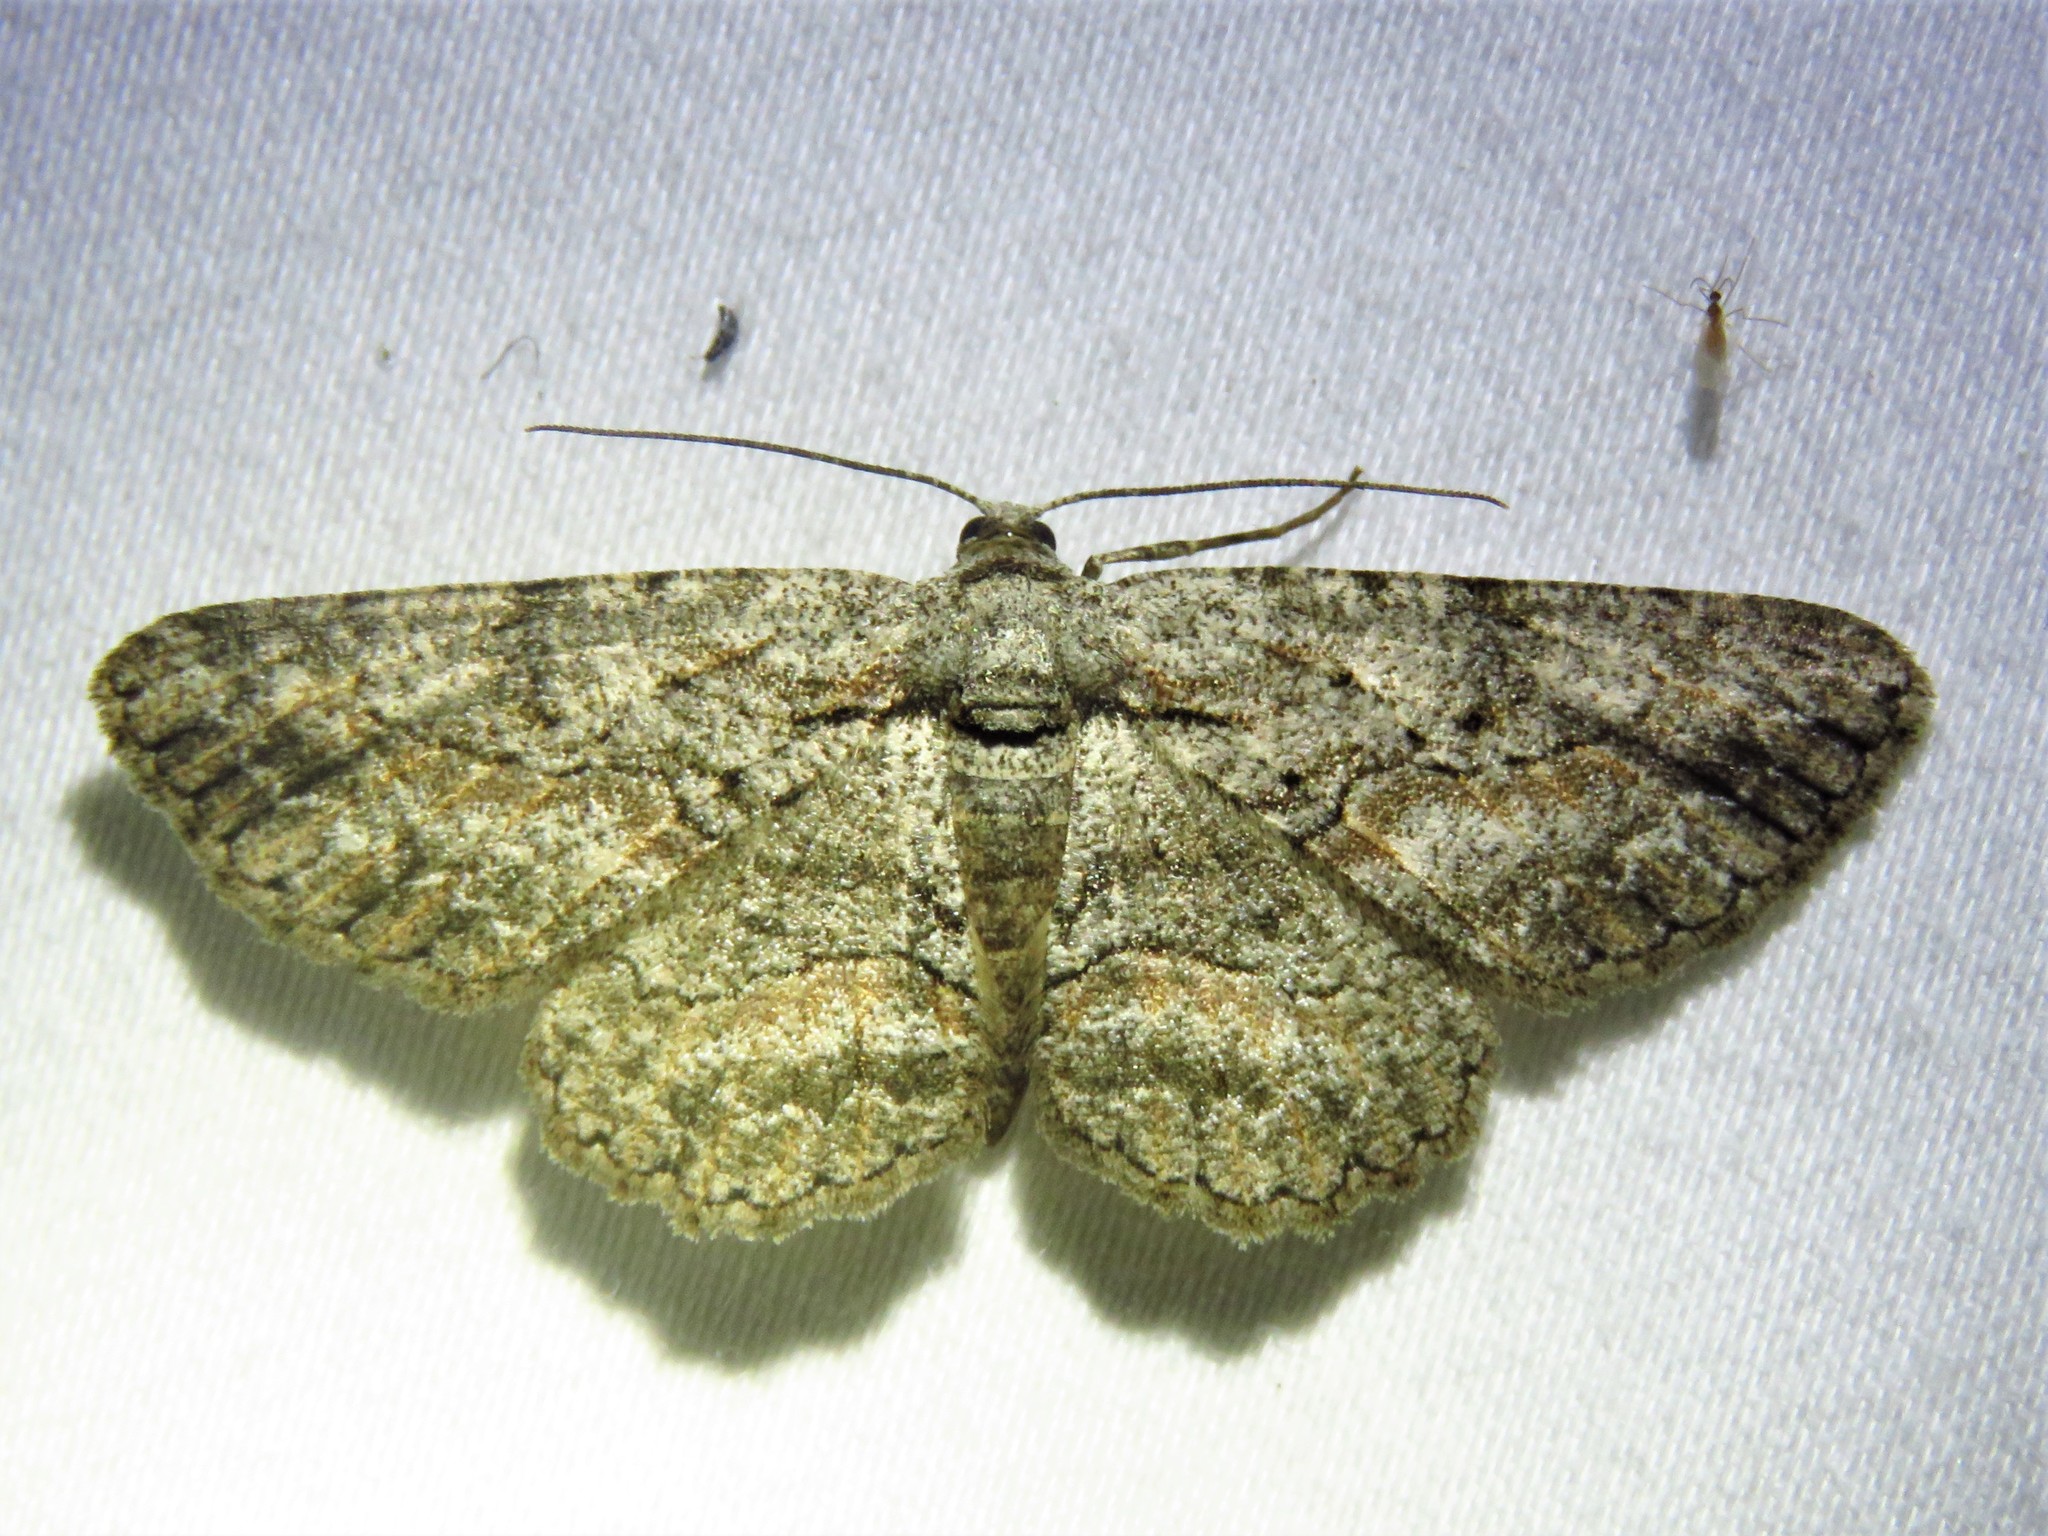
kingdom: Animalia
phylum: Arthropoda
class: Insecta
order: Lepidoptera
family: Geometridae
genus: Anavitrinella
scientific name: Anavitrinella pampinaria
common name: Common gray
